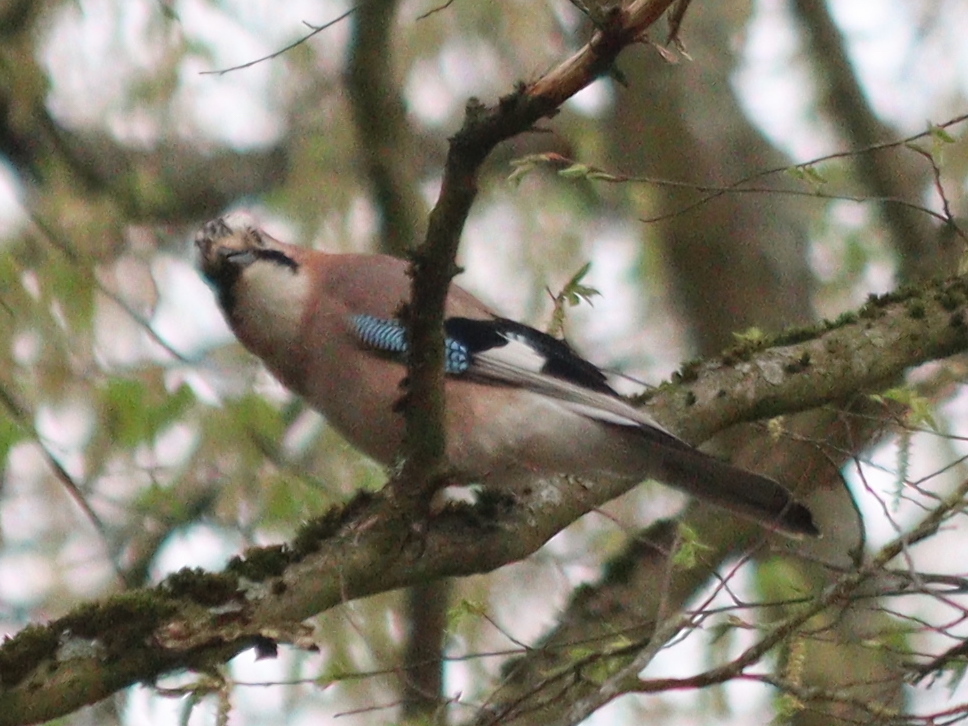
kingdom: Animalia
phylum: Chordata
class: Aves
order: Passeriformes
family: Corvidae
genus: Garrulus
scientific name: Garrulus glandarius
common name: Eurasian jay
